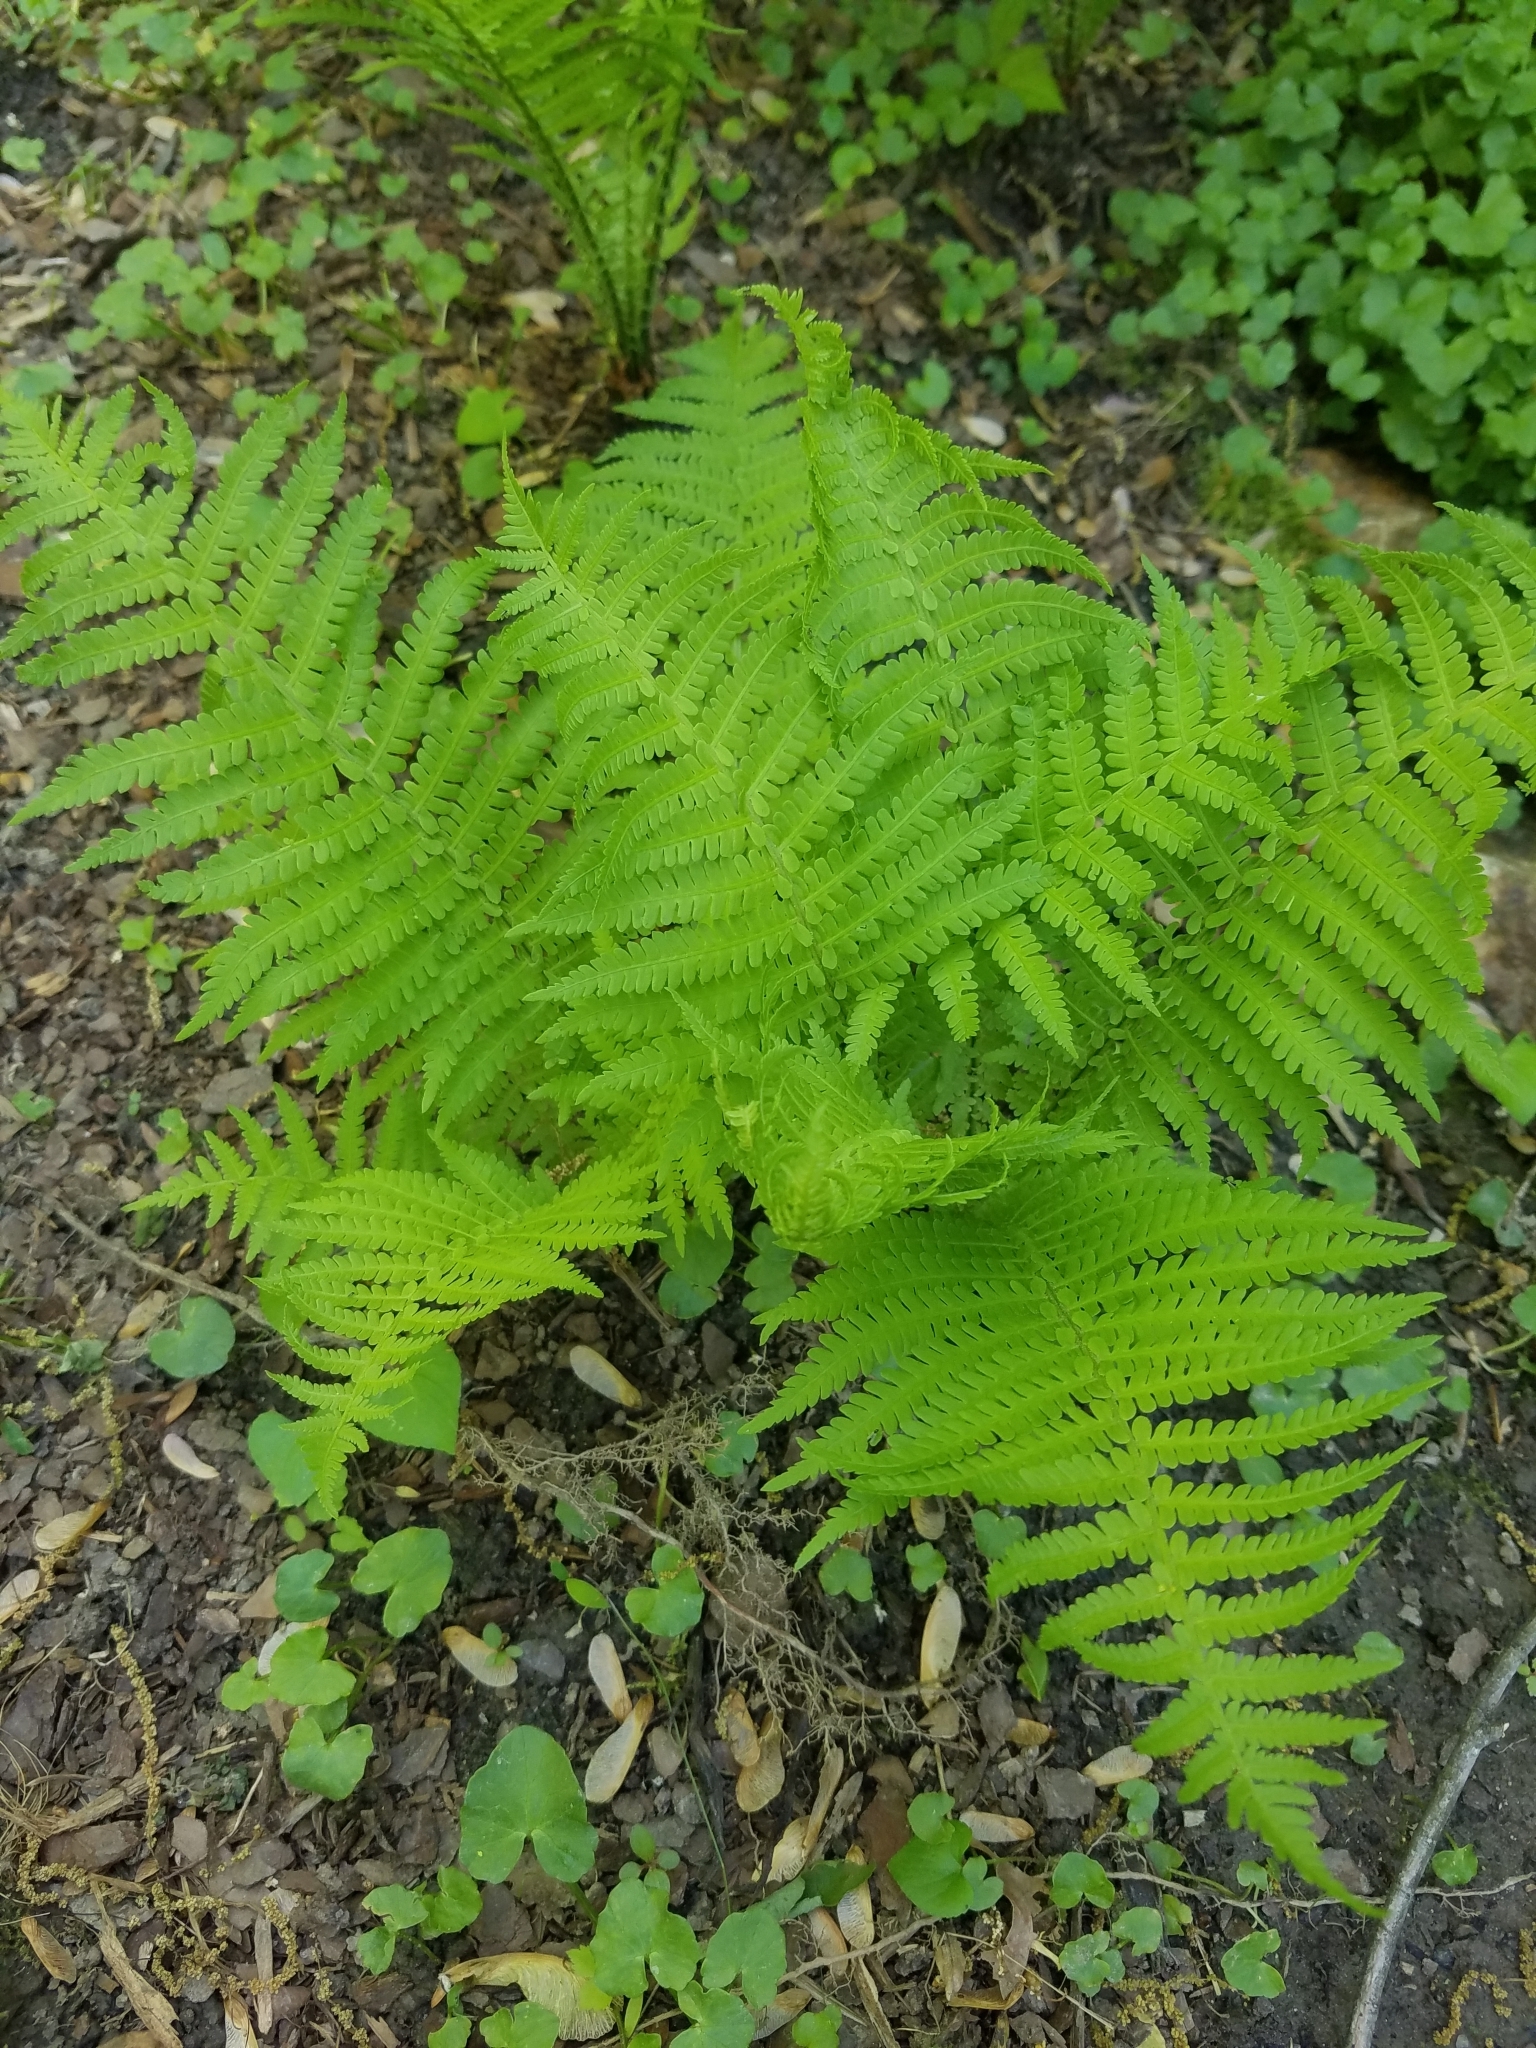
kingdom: Plantae
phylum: Tracheophyta
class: Polypodiopsida
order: Polypodiales
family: Thelypteridaceae
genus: Amauropelta
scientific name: Amauropelta noveboracensis
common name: New york fern
